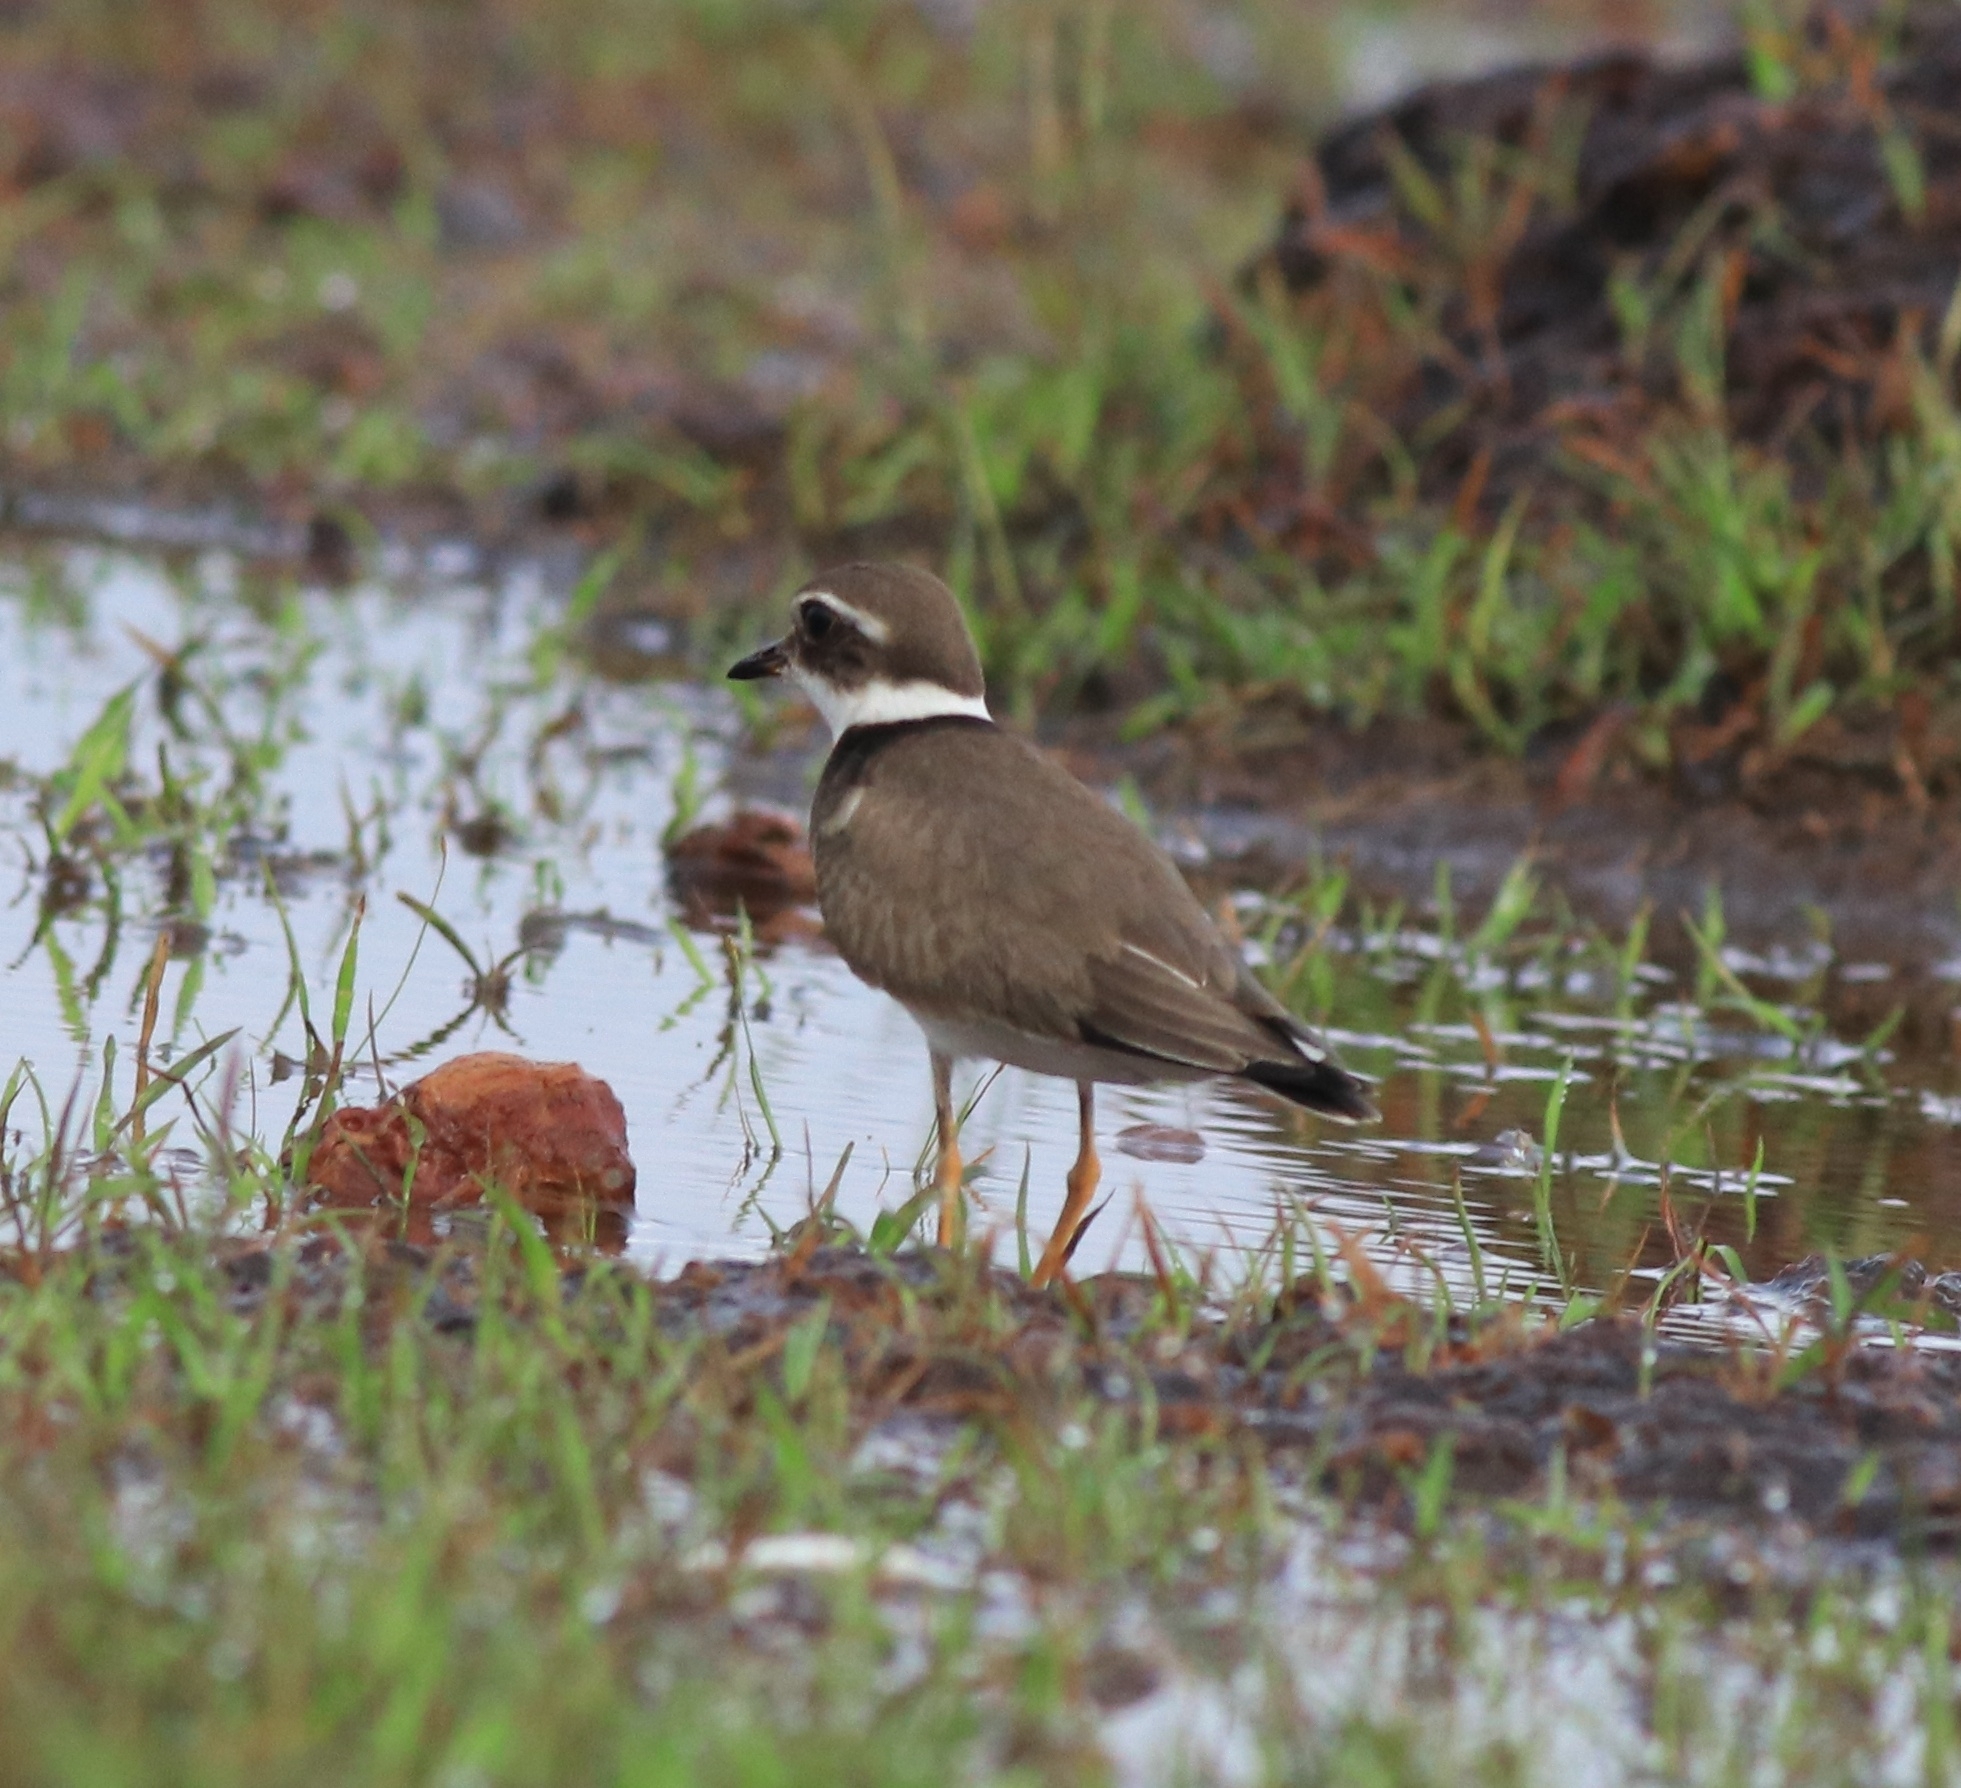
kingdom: Animalia
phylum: Chordata
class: Aves
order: Charadriiformes
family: Charadriidae
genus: Charadrius
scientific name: Charadrius hiaticula
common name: Common ringed plover
